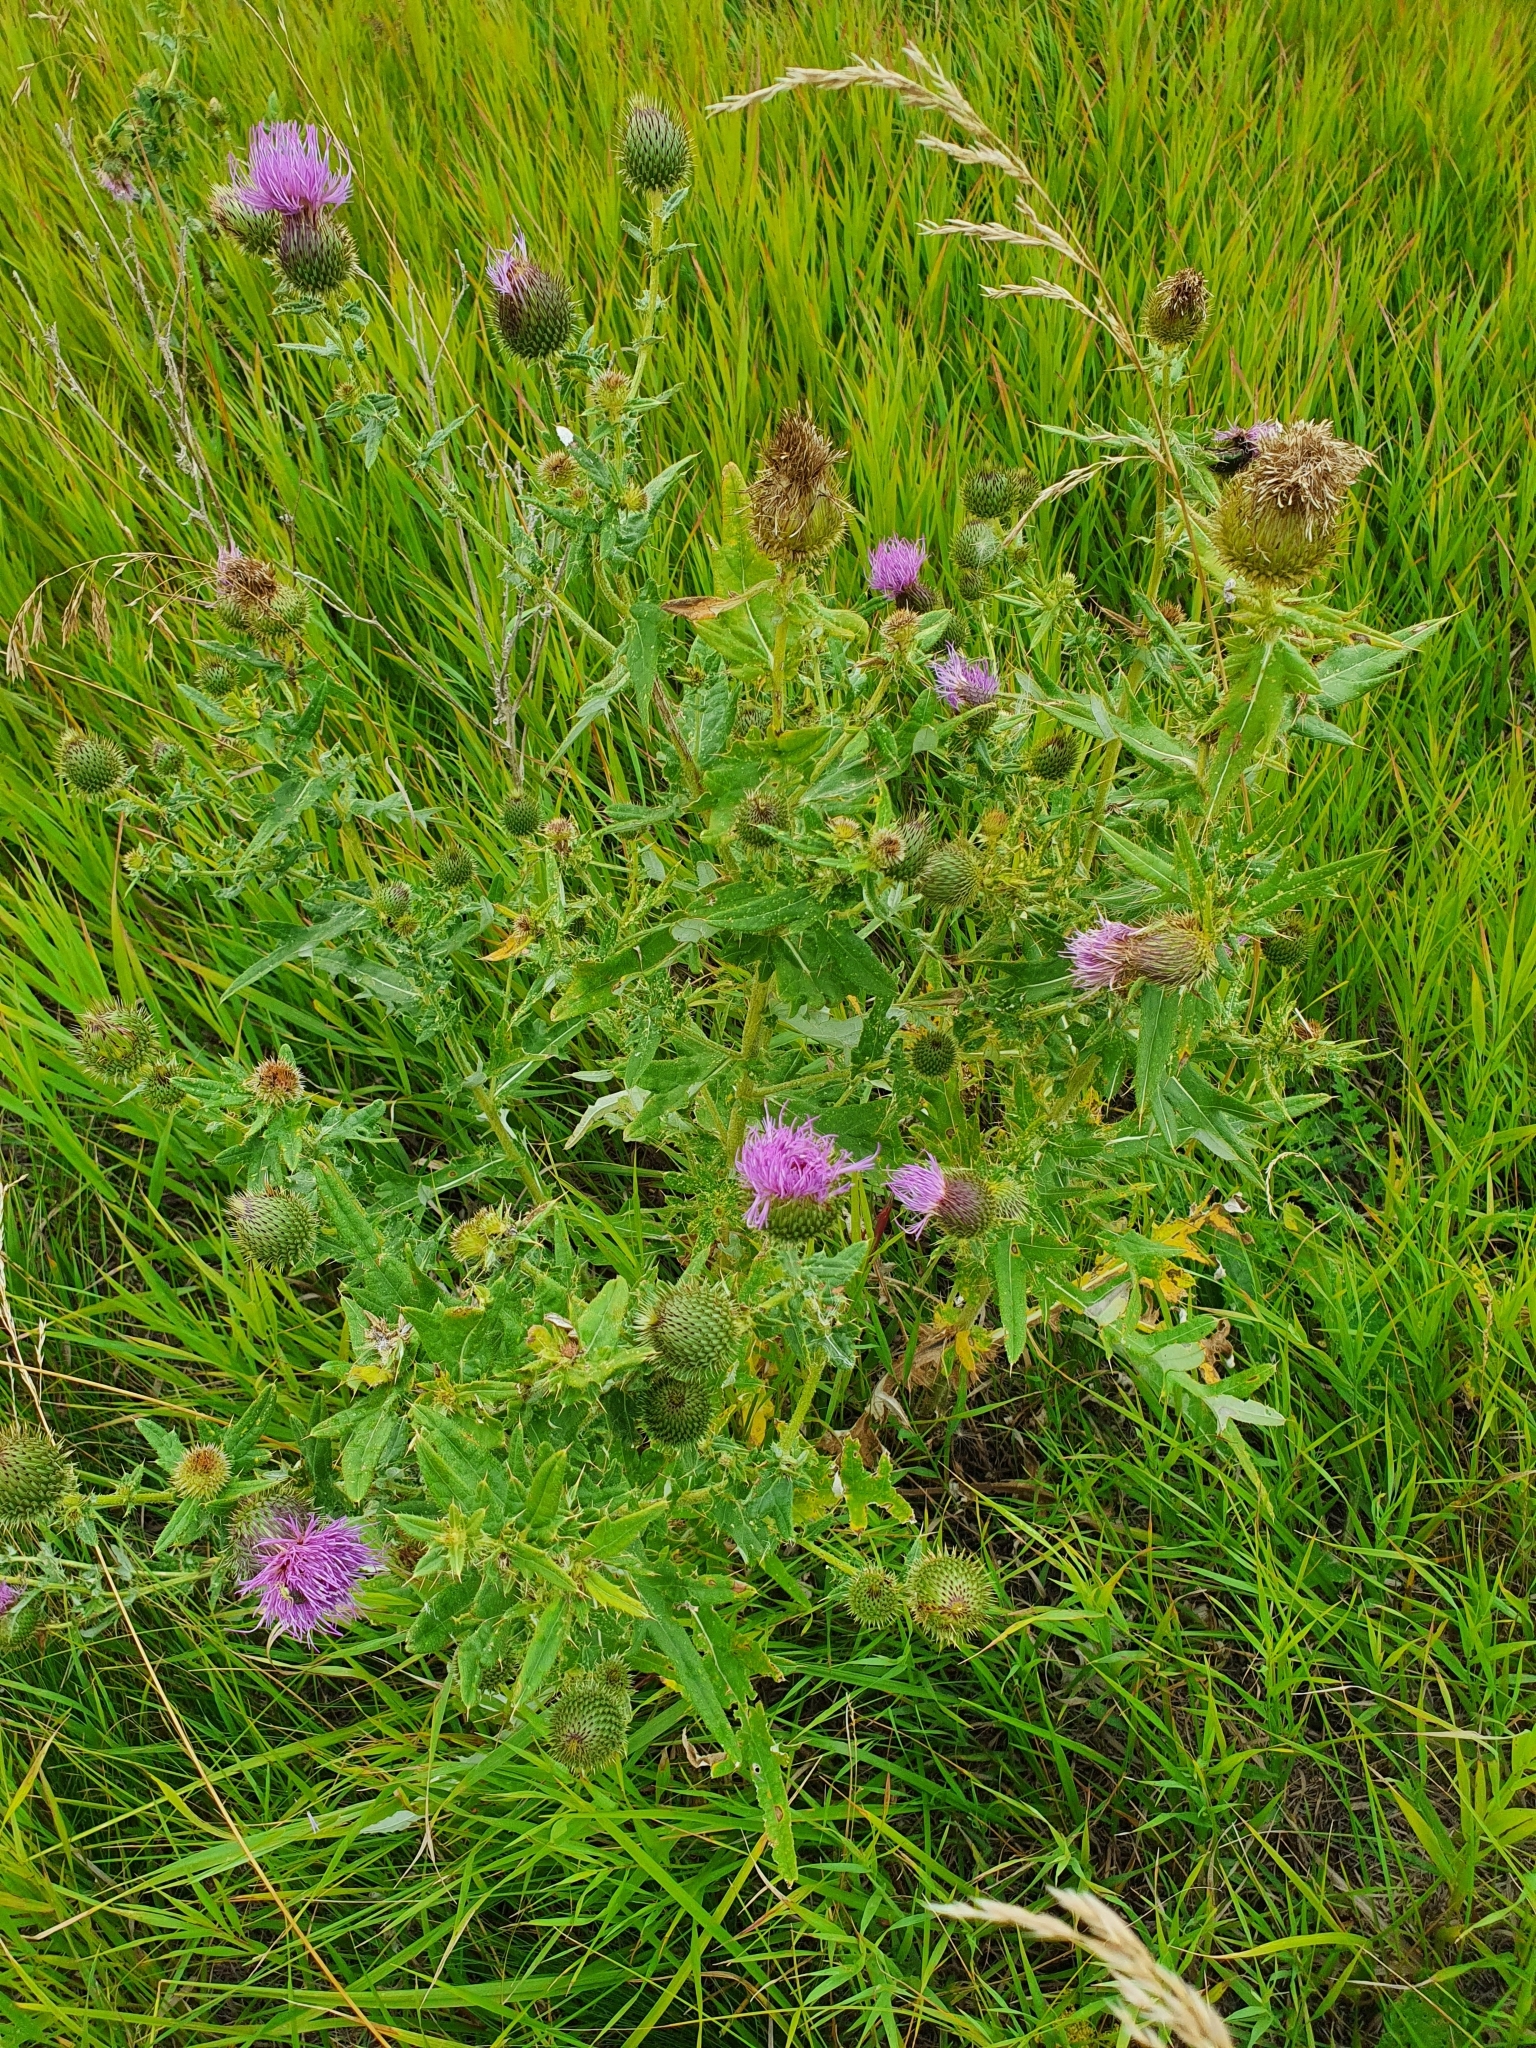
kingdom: Plantae
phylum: Tracheophyta
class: Magnoliopsida
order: Asterales
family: Asteraceae
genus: Cirsium
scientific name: Cirsium serrulatum
